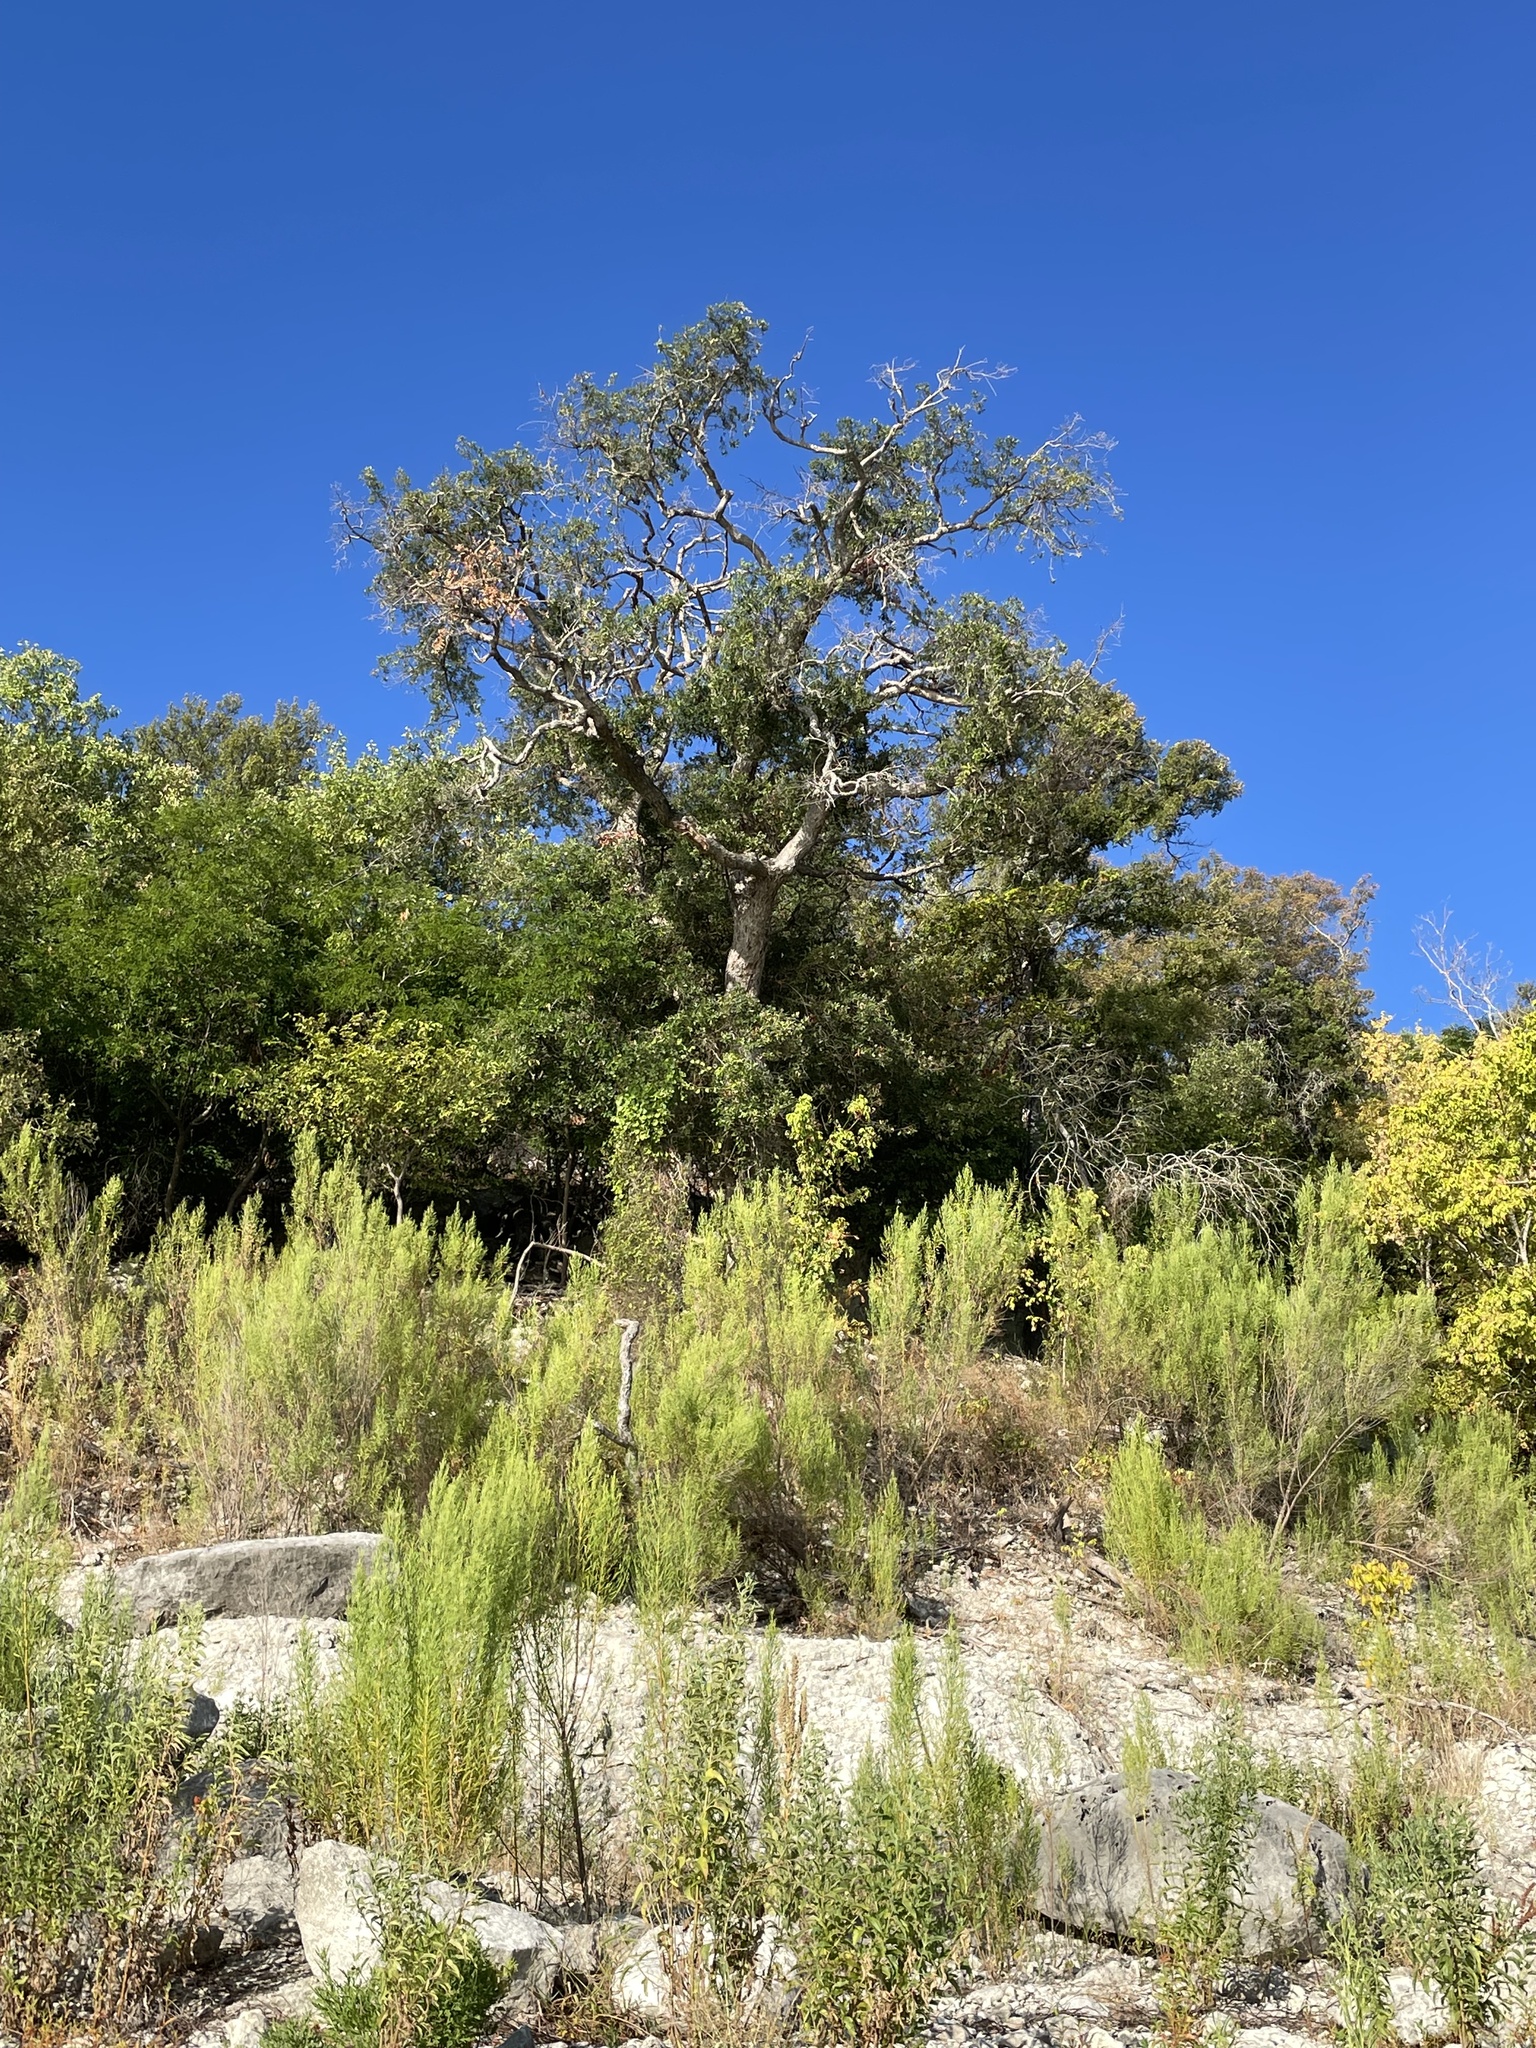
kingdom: Plantae
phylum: Tracheophyta
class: Magnoliopsida
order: Fagales
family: Fagaceae
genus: Quercus
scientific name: Quercus sinuata
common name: Durand oak
